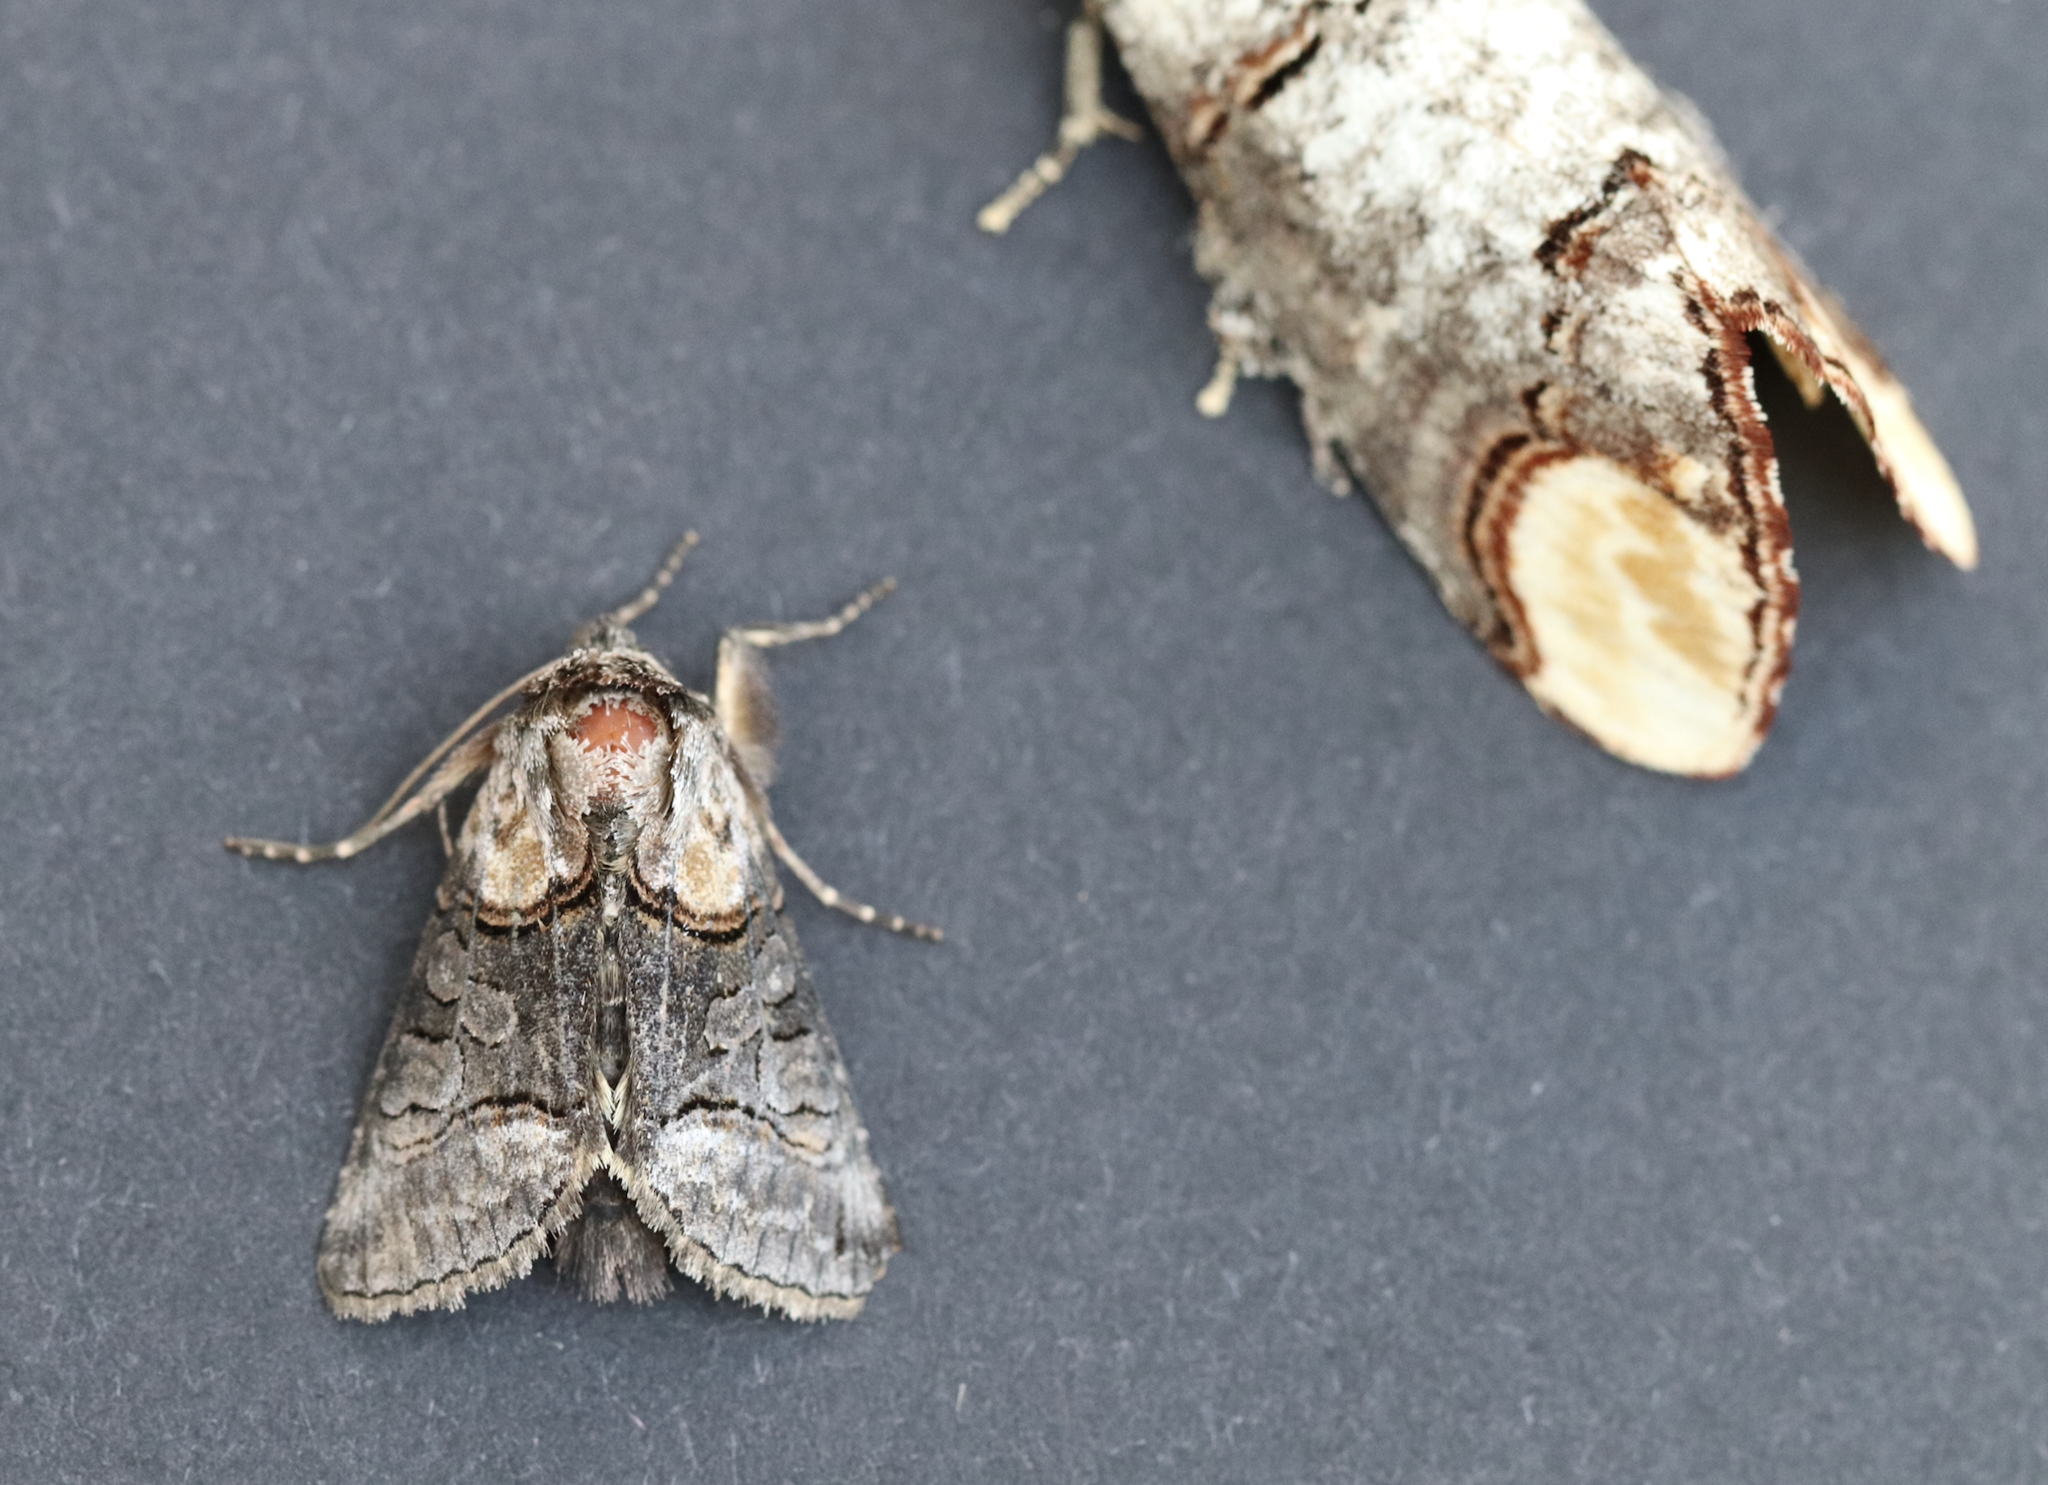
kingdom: Animalia
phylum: Arthropoda
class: Insecta
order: Lepidoptera
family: Noctuidae
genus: Abrostola
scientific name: Abrostola asclepiadis
